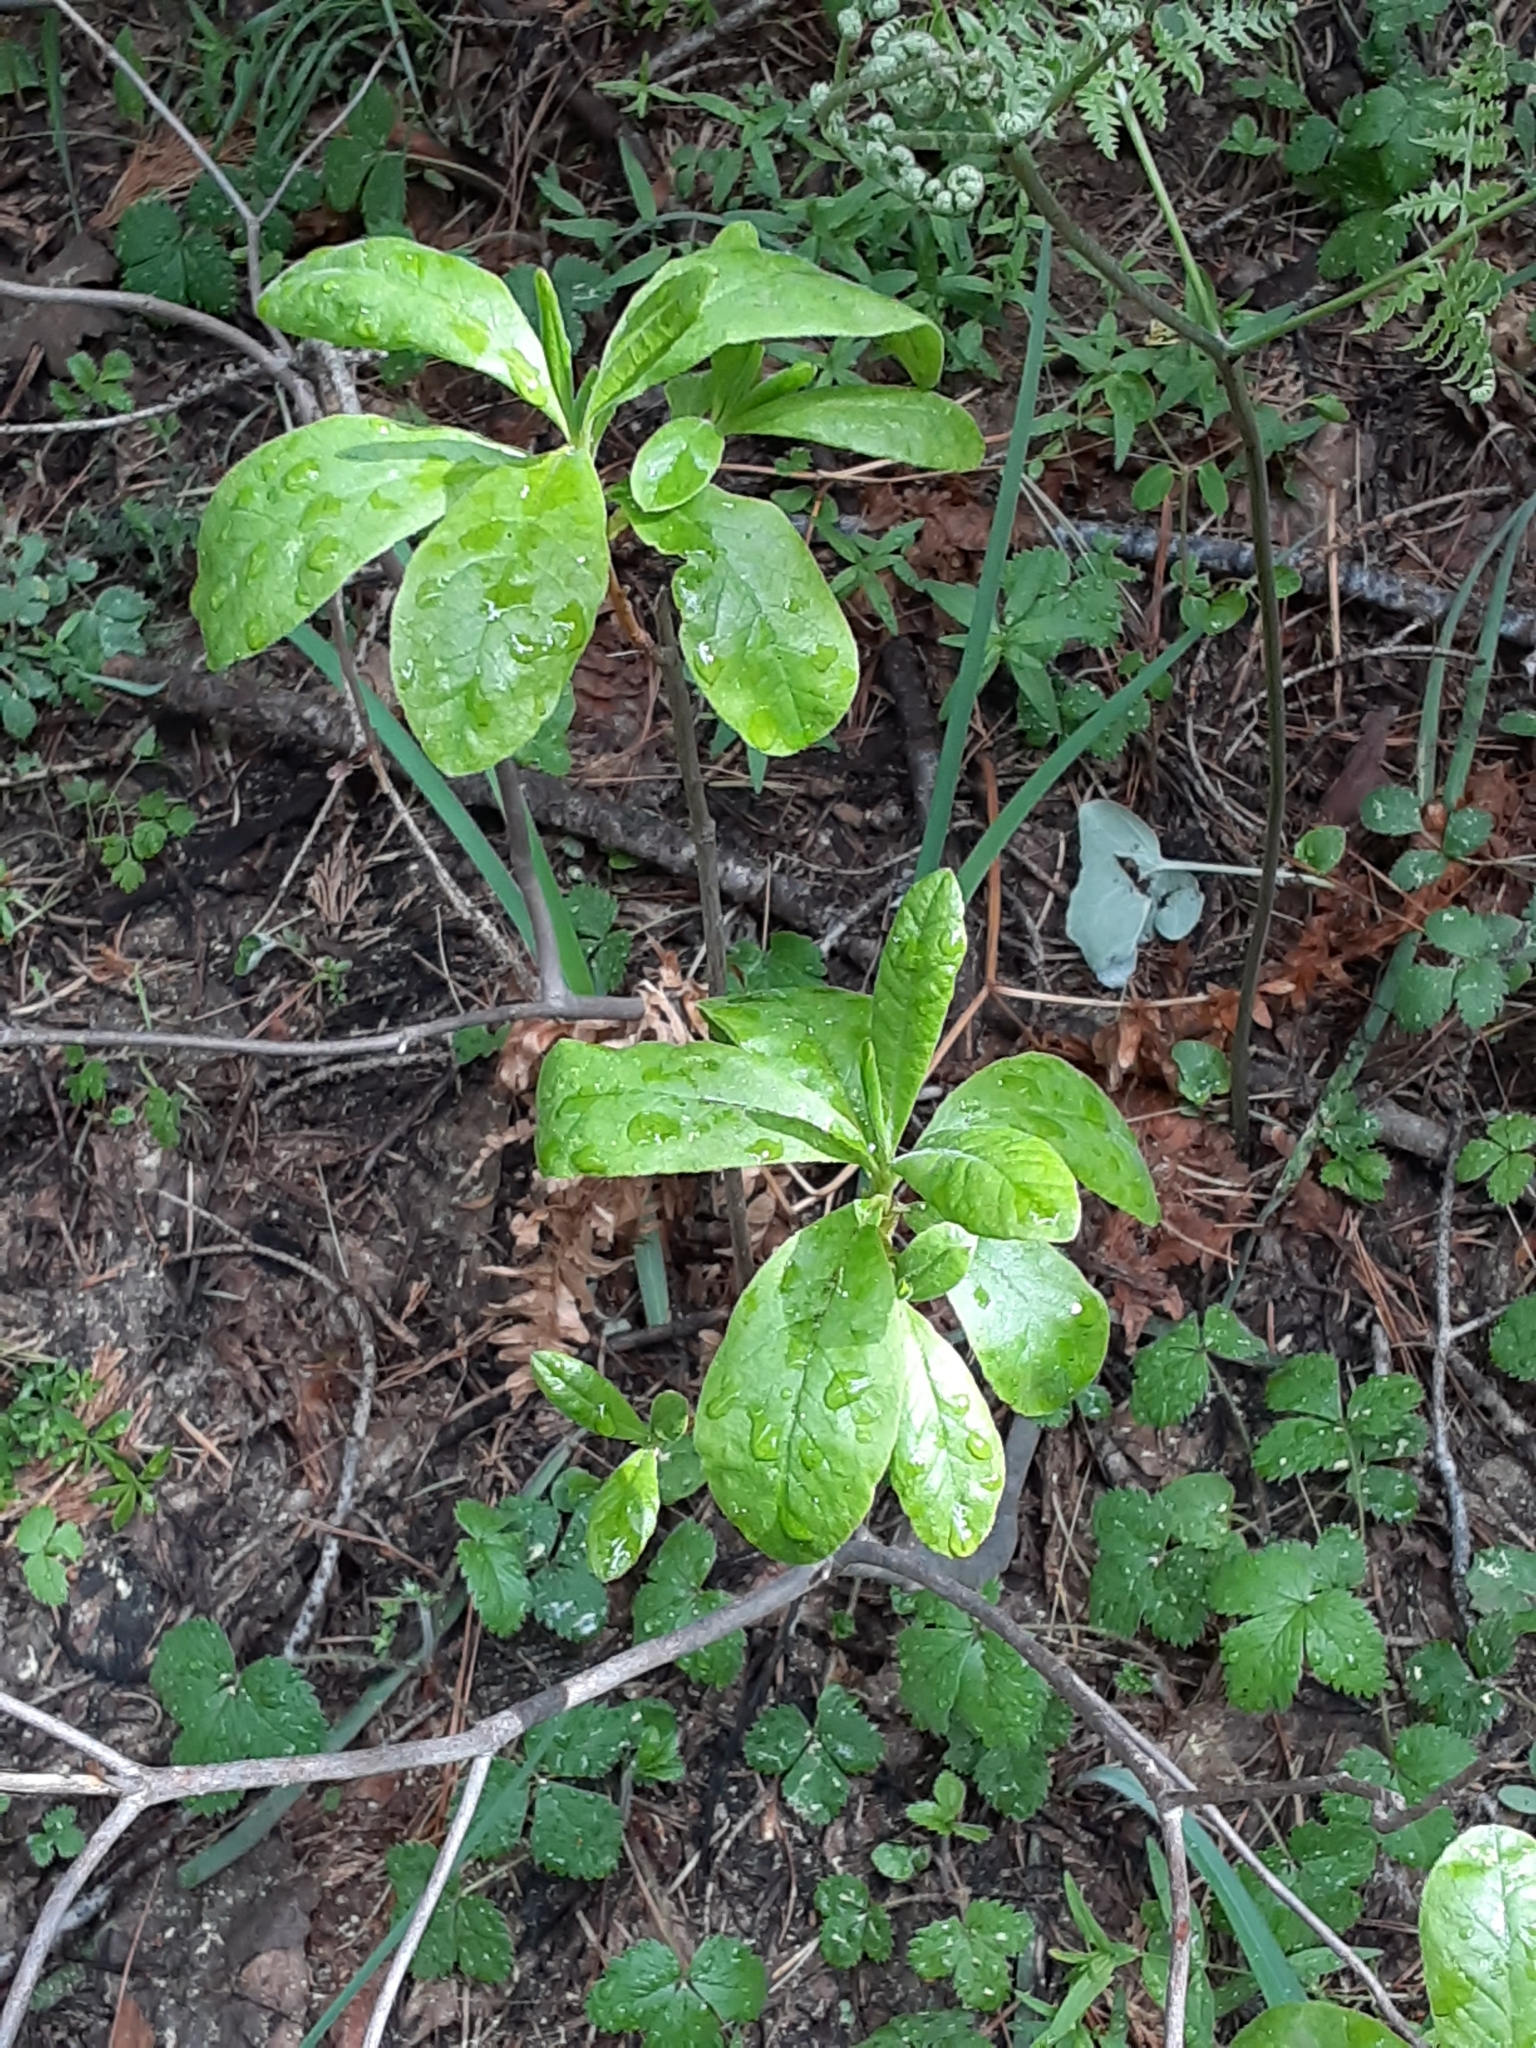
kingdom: Plantae
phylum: Tracheophyta
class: Magnoliopsida
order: Ericales
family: Ericaceae
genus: Rhododendron
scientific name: Rhododendron occidentale
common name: Western azalea
